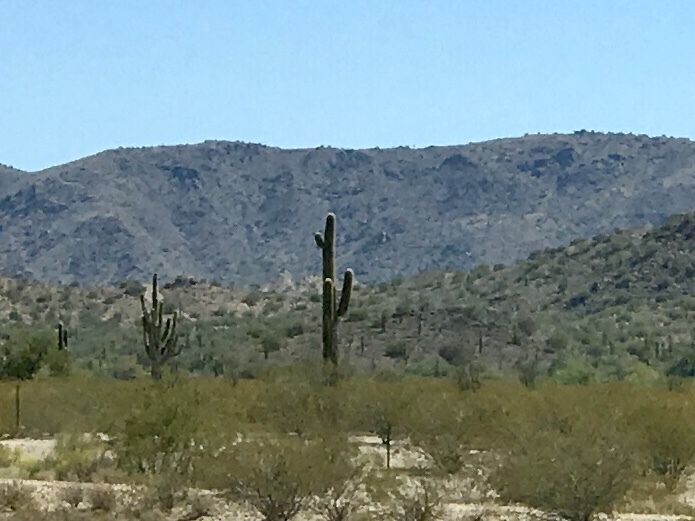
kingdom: Plantae
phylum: Tracheophyta
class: Magnoliopsida
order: Caryophyllales
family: Cactaceae
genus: Carnegiea
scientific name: Carnegiea gigantea
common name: Saguaro
